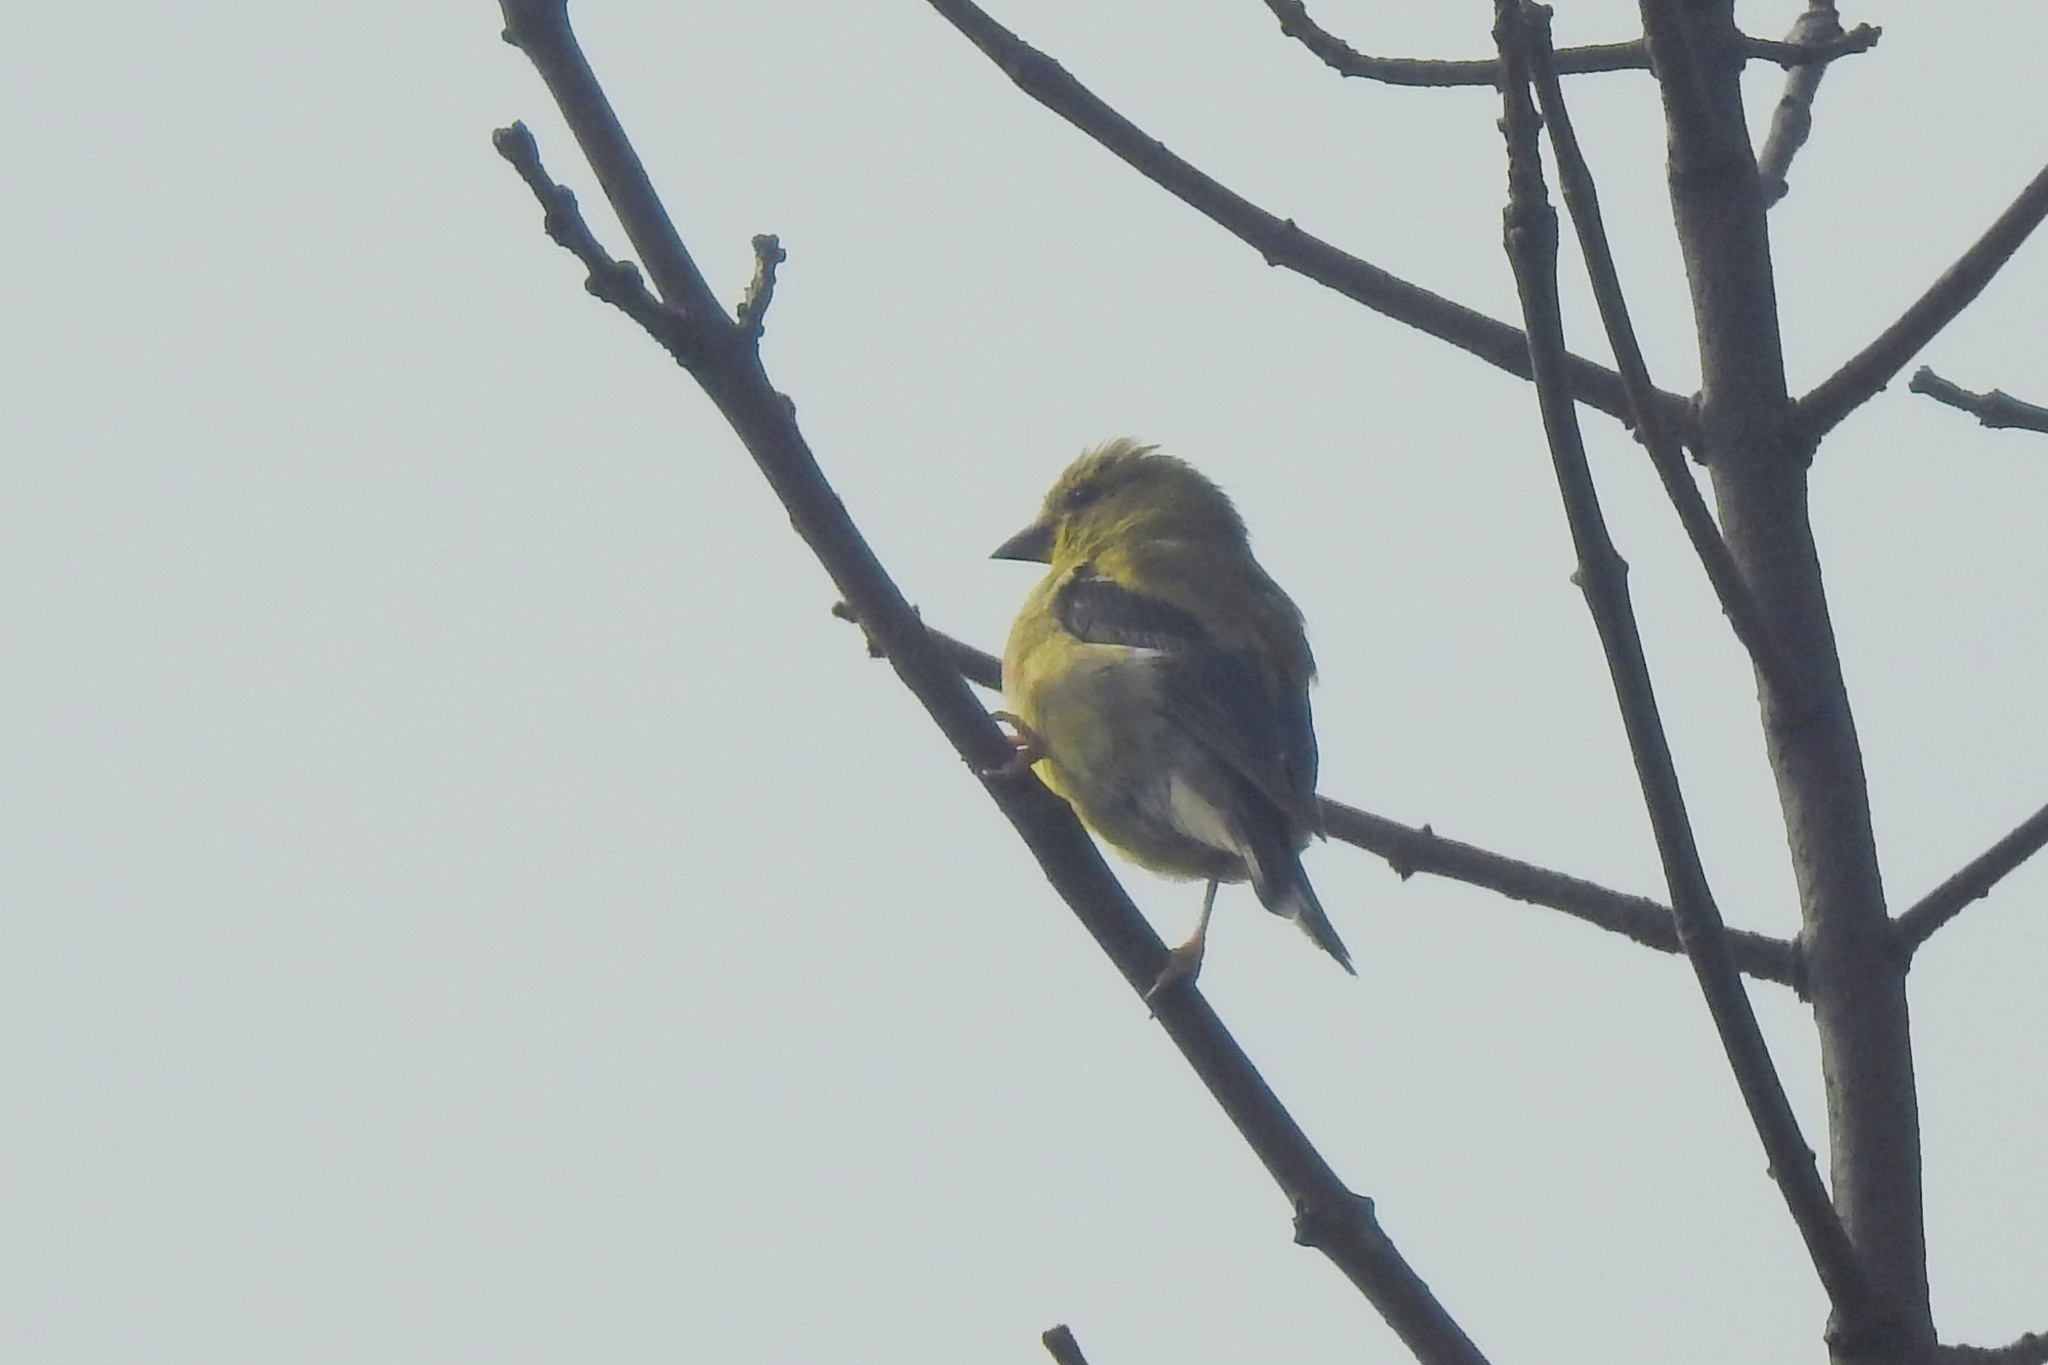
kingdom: Animalia
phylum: Chordata
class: Aves
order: Passeriformes
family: Fringillidae
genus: Spinus
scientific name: Spinus tristis
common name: American goldfinch
